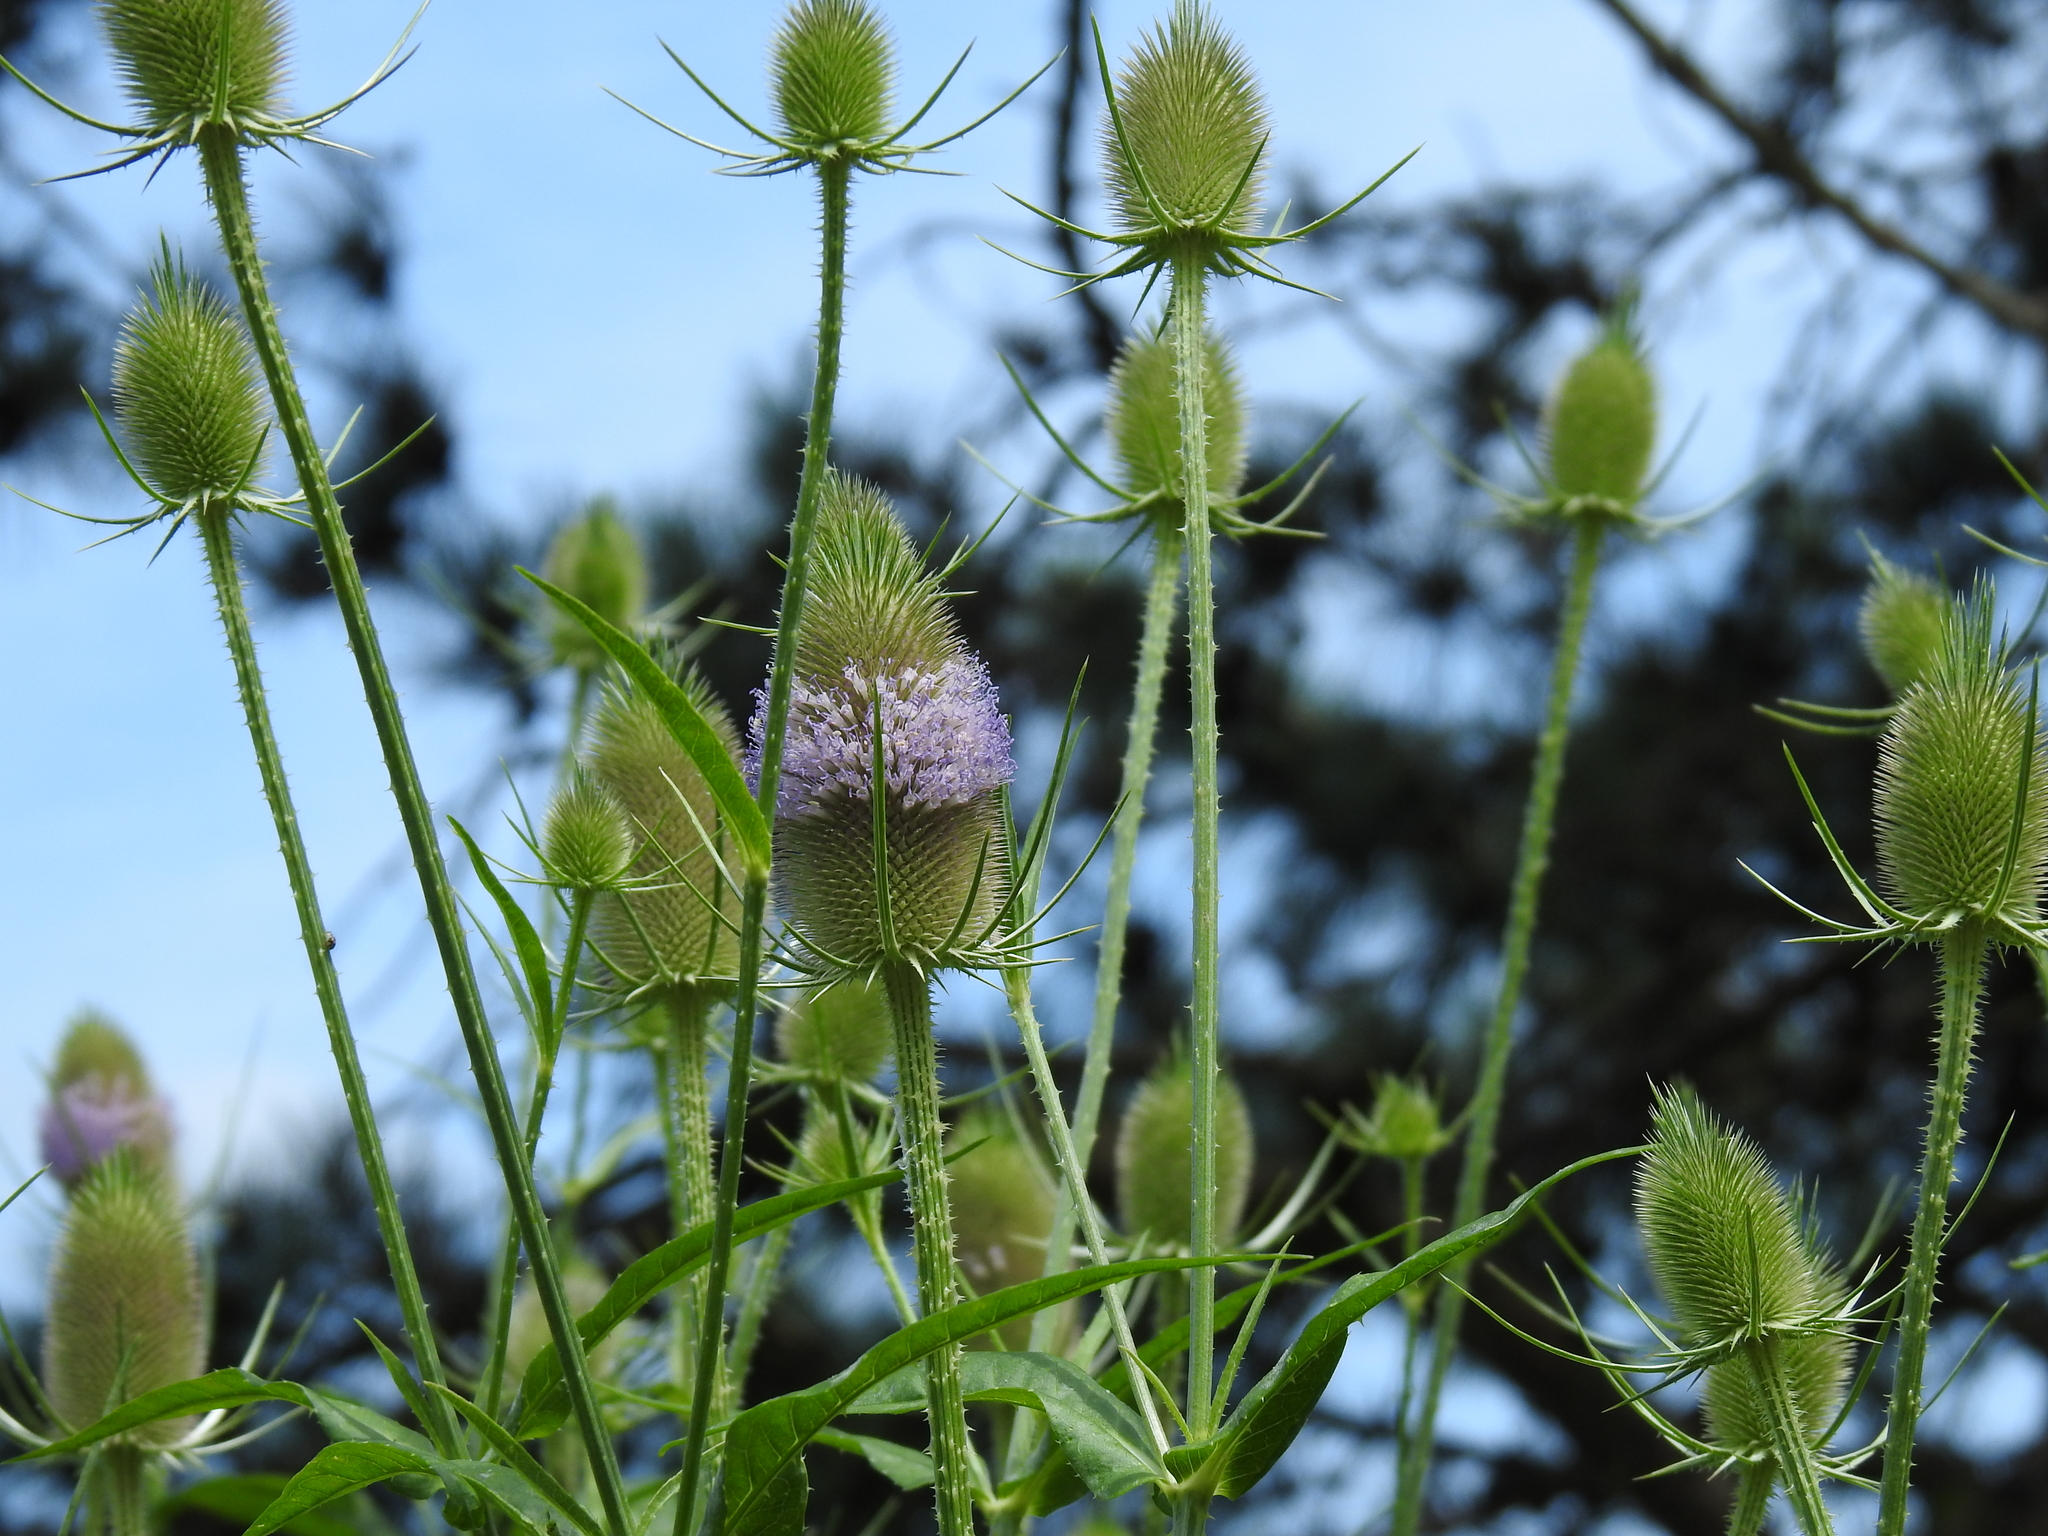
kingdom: Plantae
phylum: Tracheophyta
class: Magnoliopsida
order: Dipsacales
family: Caprifoliaceae
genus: Dipsacus
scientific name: Dipsacus fullonum
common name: Teasel
